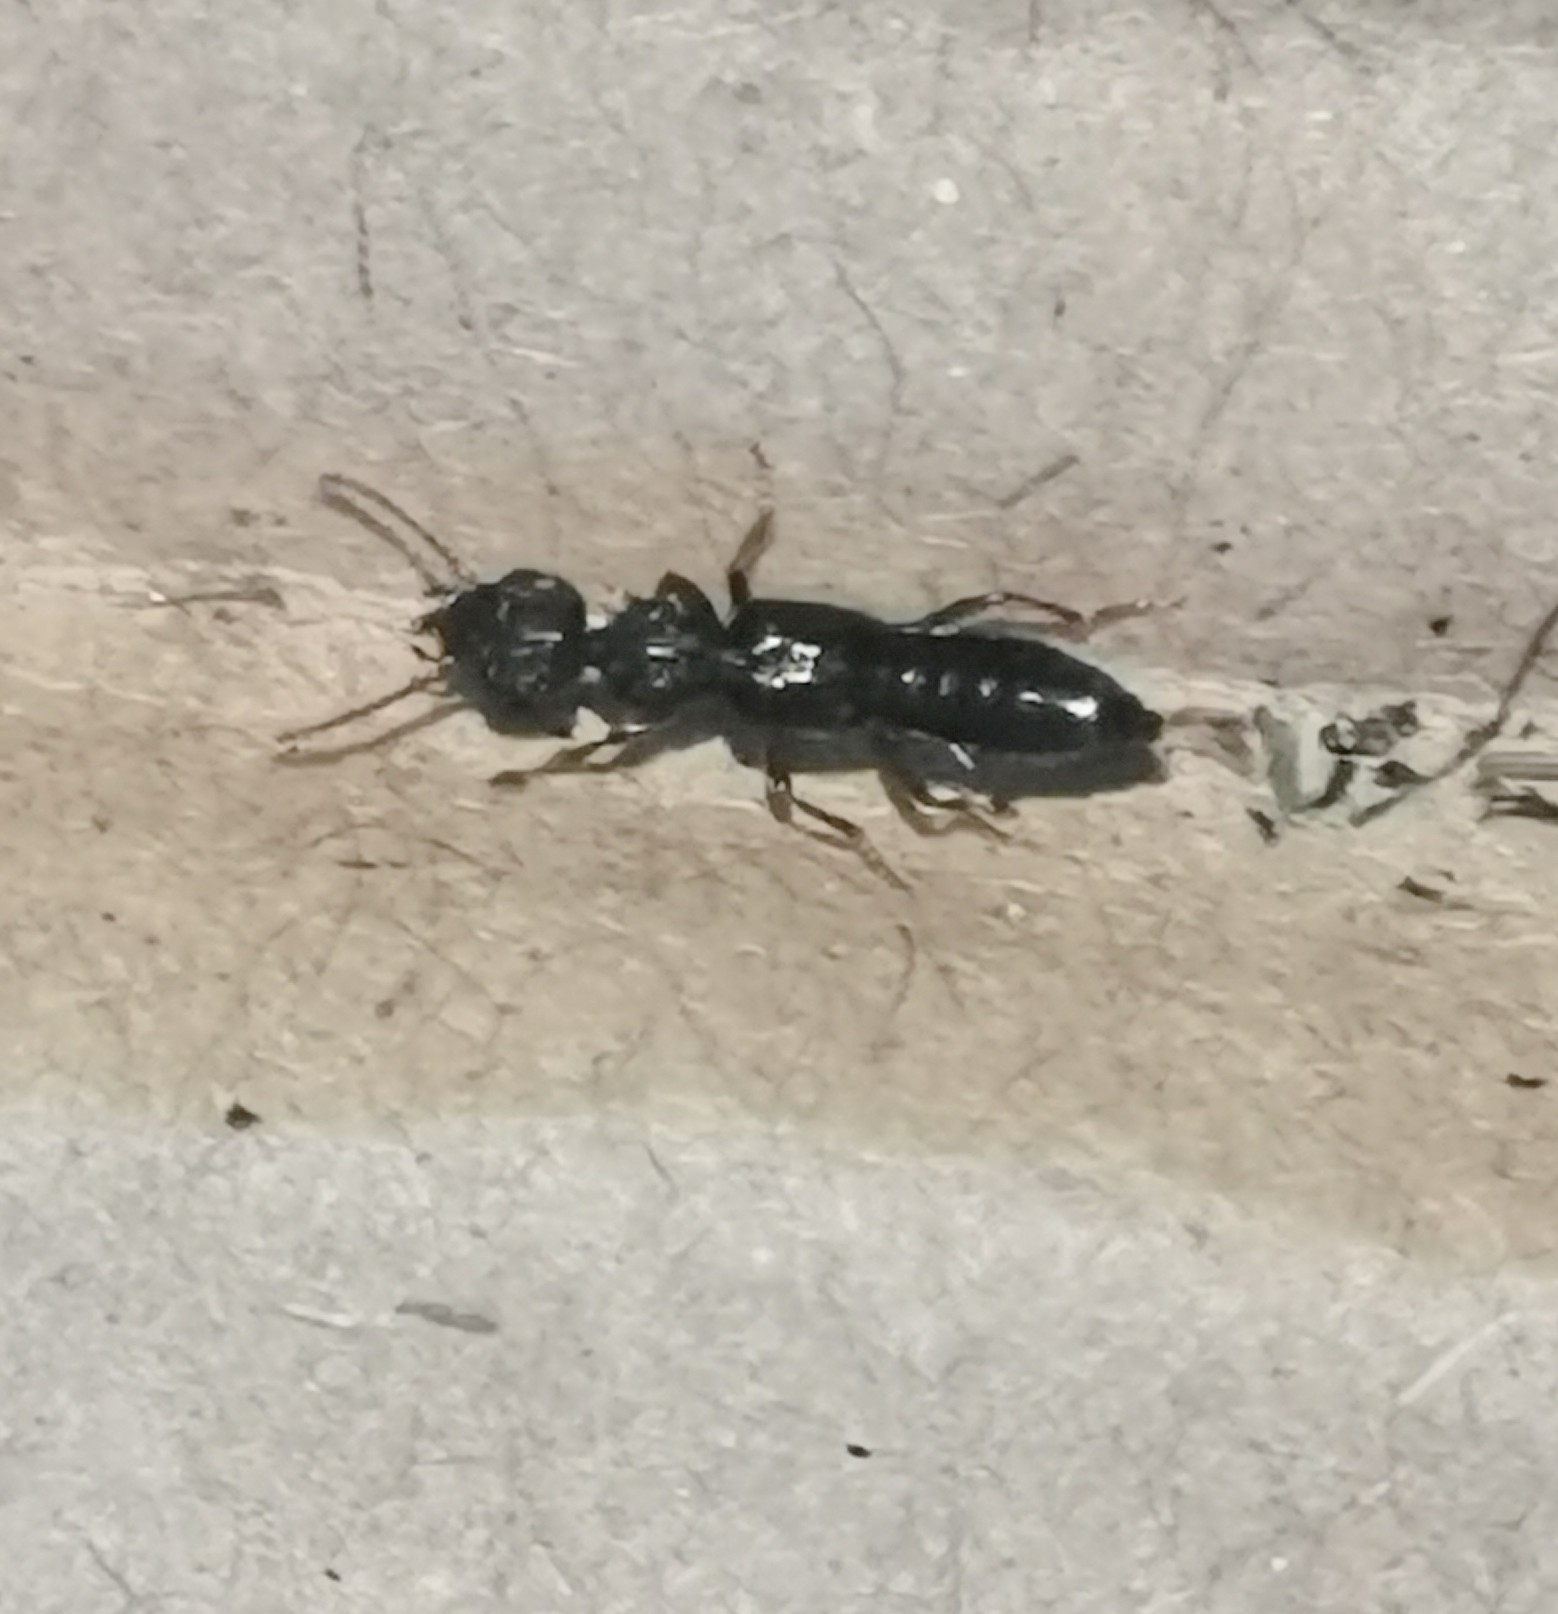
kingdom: Animalia
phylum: Arthropoda
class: Insecta
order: Coleoptera
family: Staphylinidae
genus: Rugilus
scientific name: Rugilus rufipes
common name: Staph beetle
